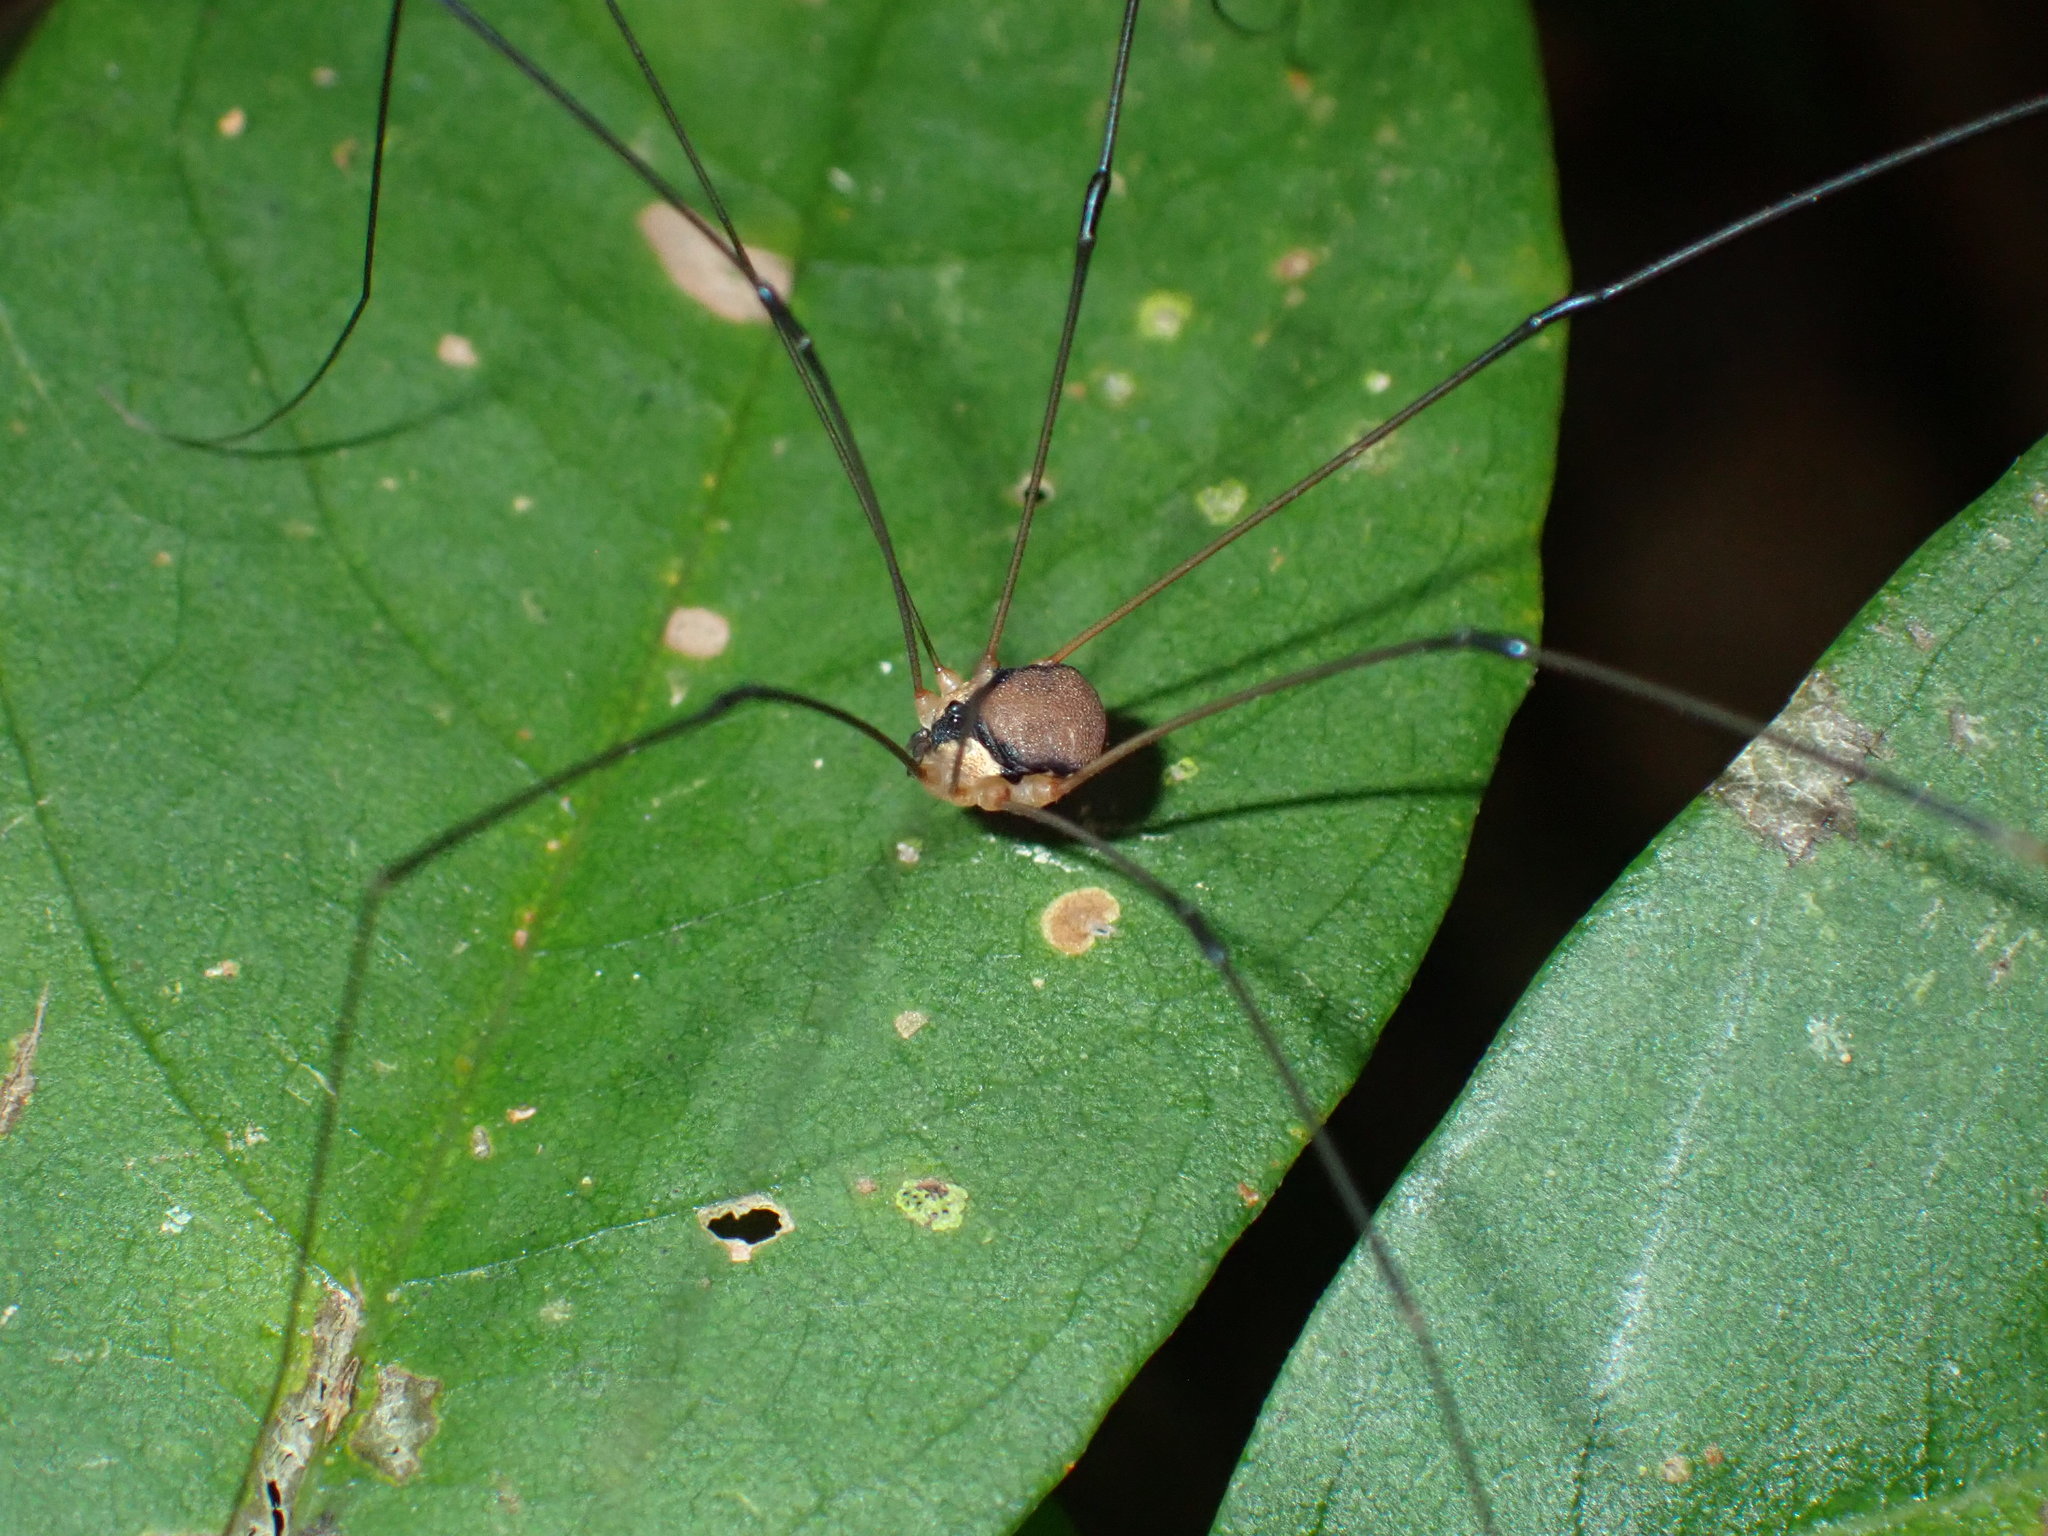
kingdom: Animalia
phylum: Arthropoda
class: Arachnida
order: Opiliones
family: Sclerosomatidae
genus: Geaya
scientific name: Geaya yucatana
